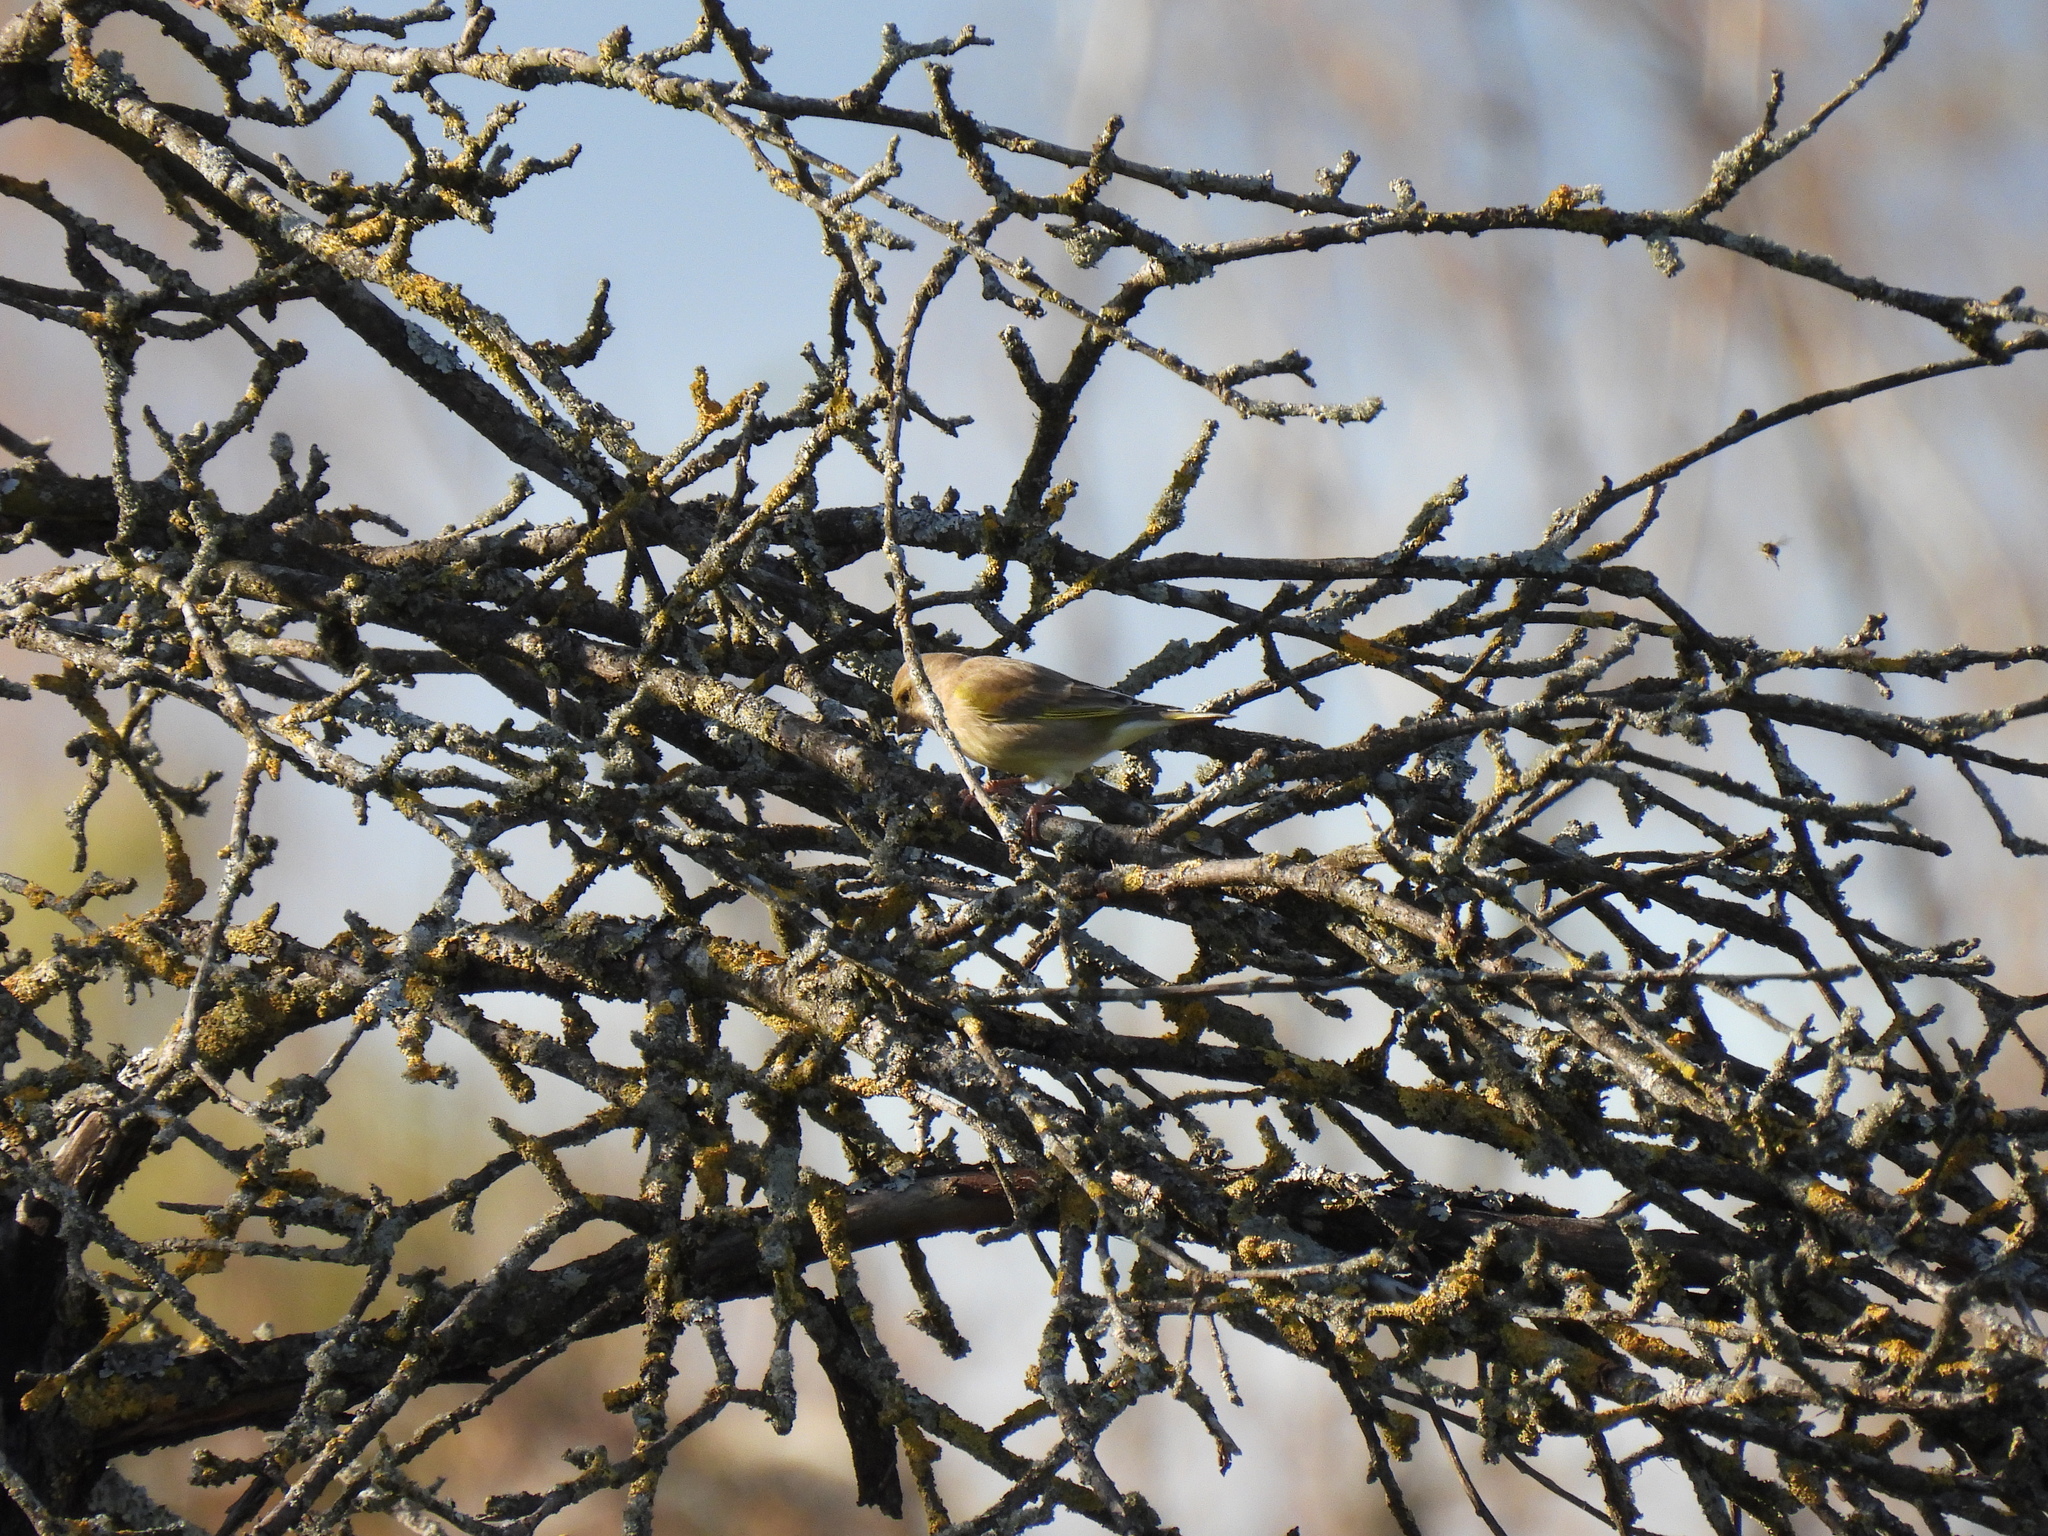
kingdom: Plantae
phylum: Tracheophyta
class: Liliopsida
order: Poales
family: Poaceae
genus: Chloris
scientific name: Chloris chloris
